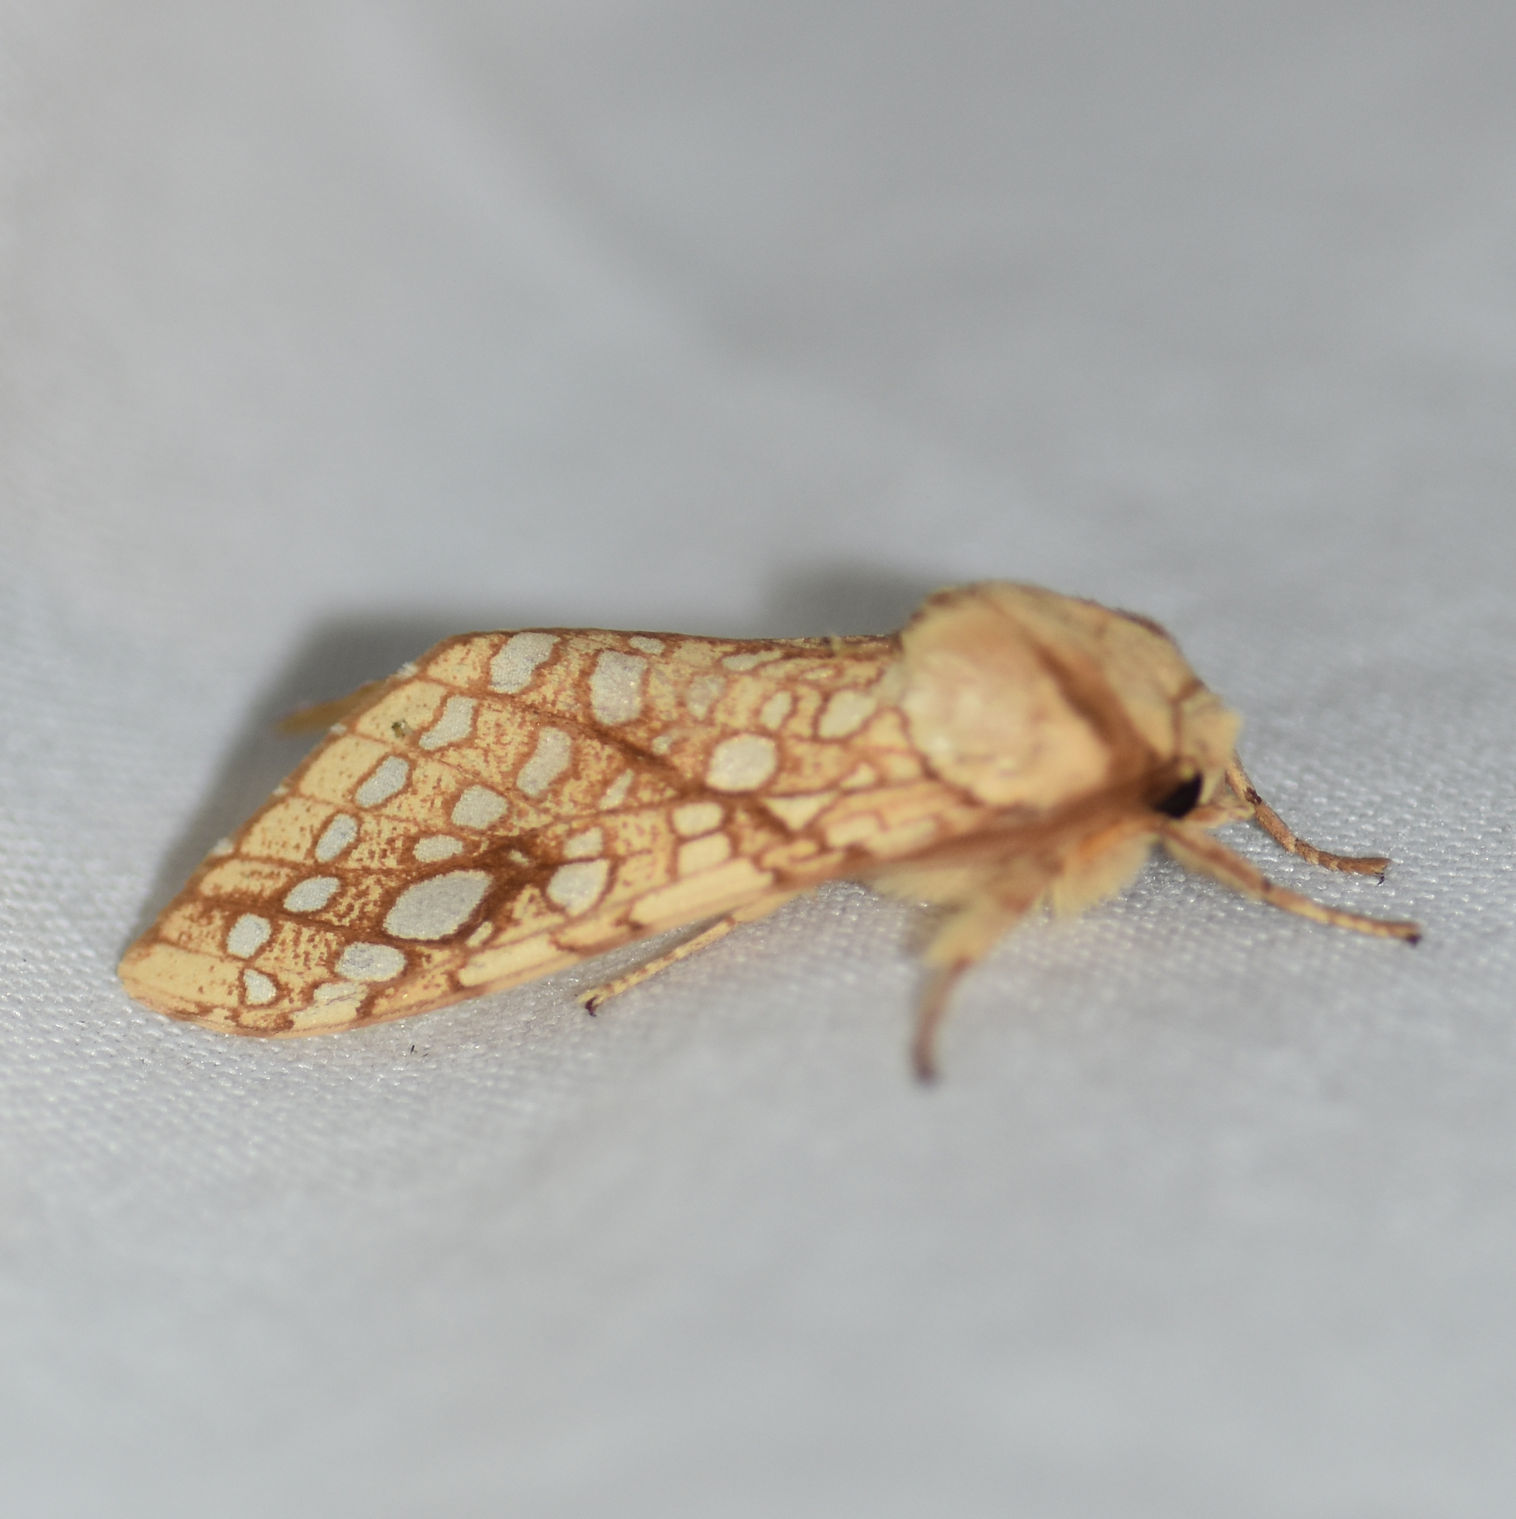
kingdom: Animalia
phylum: Arthropoda
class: Insecta
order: Lepidoptera
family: Erebidae
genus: Lophocampa
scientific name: Lophocampa caryae
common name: Hickory tussock moth
